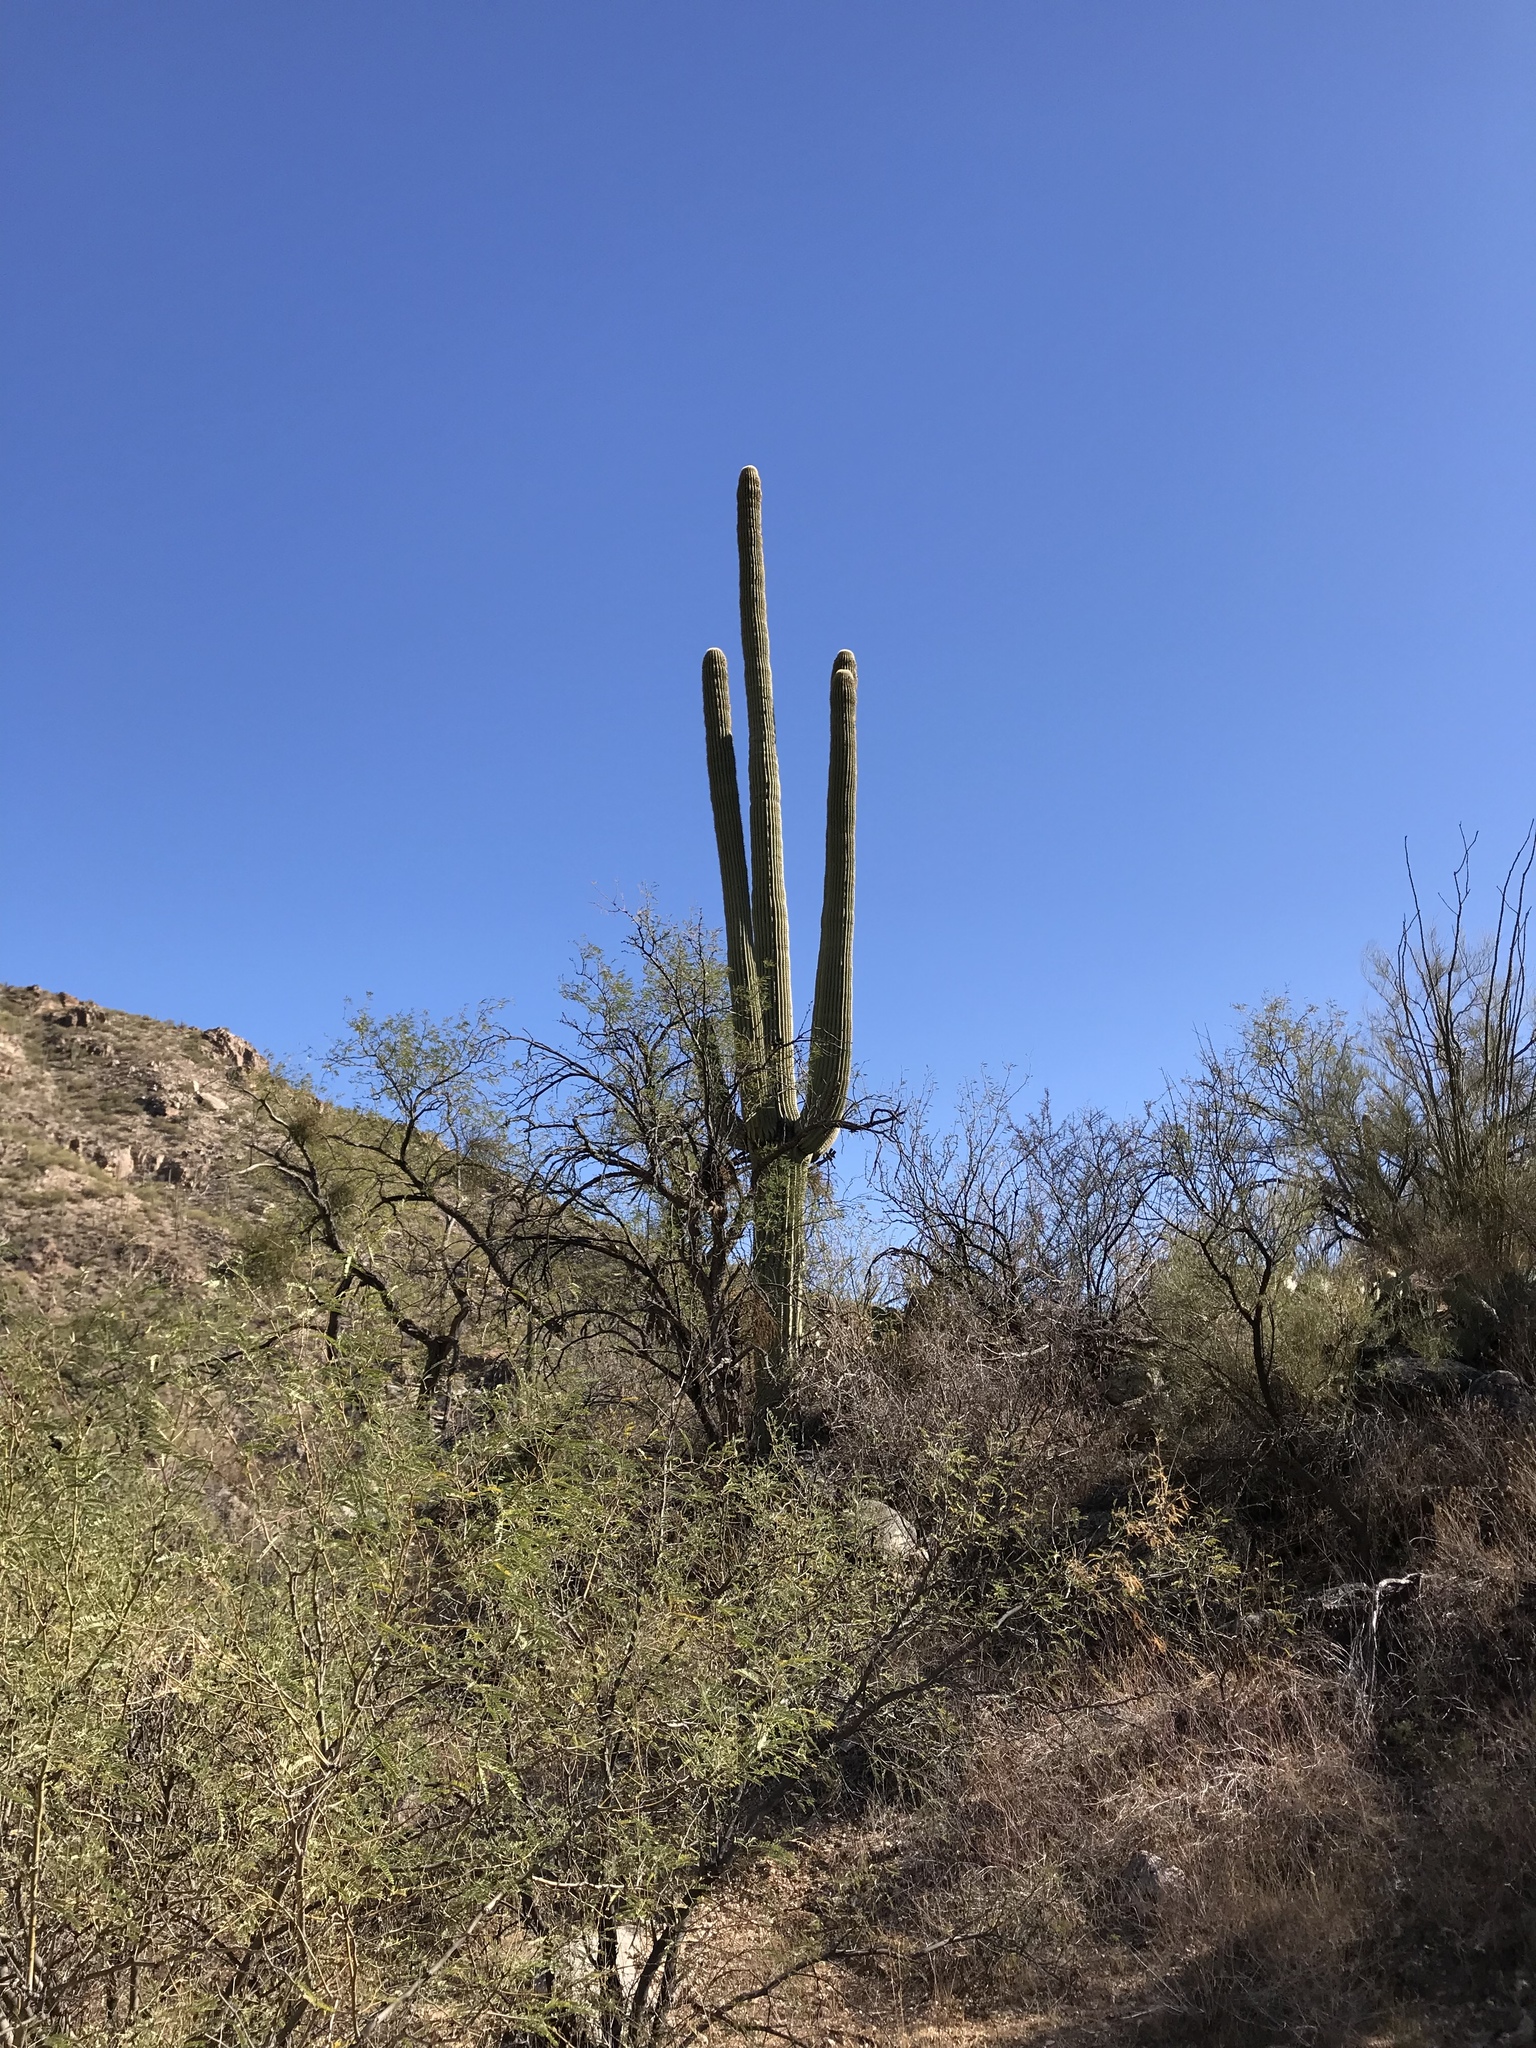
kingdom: Plantae
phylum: Tracheophyta
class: Magnoliopsida
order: Caryophyllales
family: Cactaceae
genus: Carnegiea
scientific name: Carnegiea gigantea
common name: Saguaro
